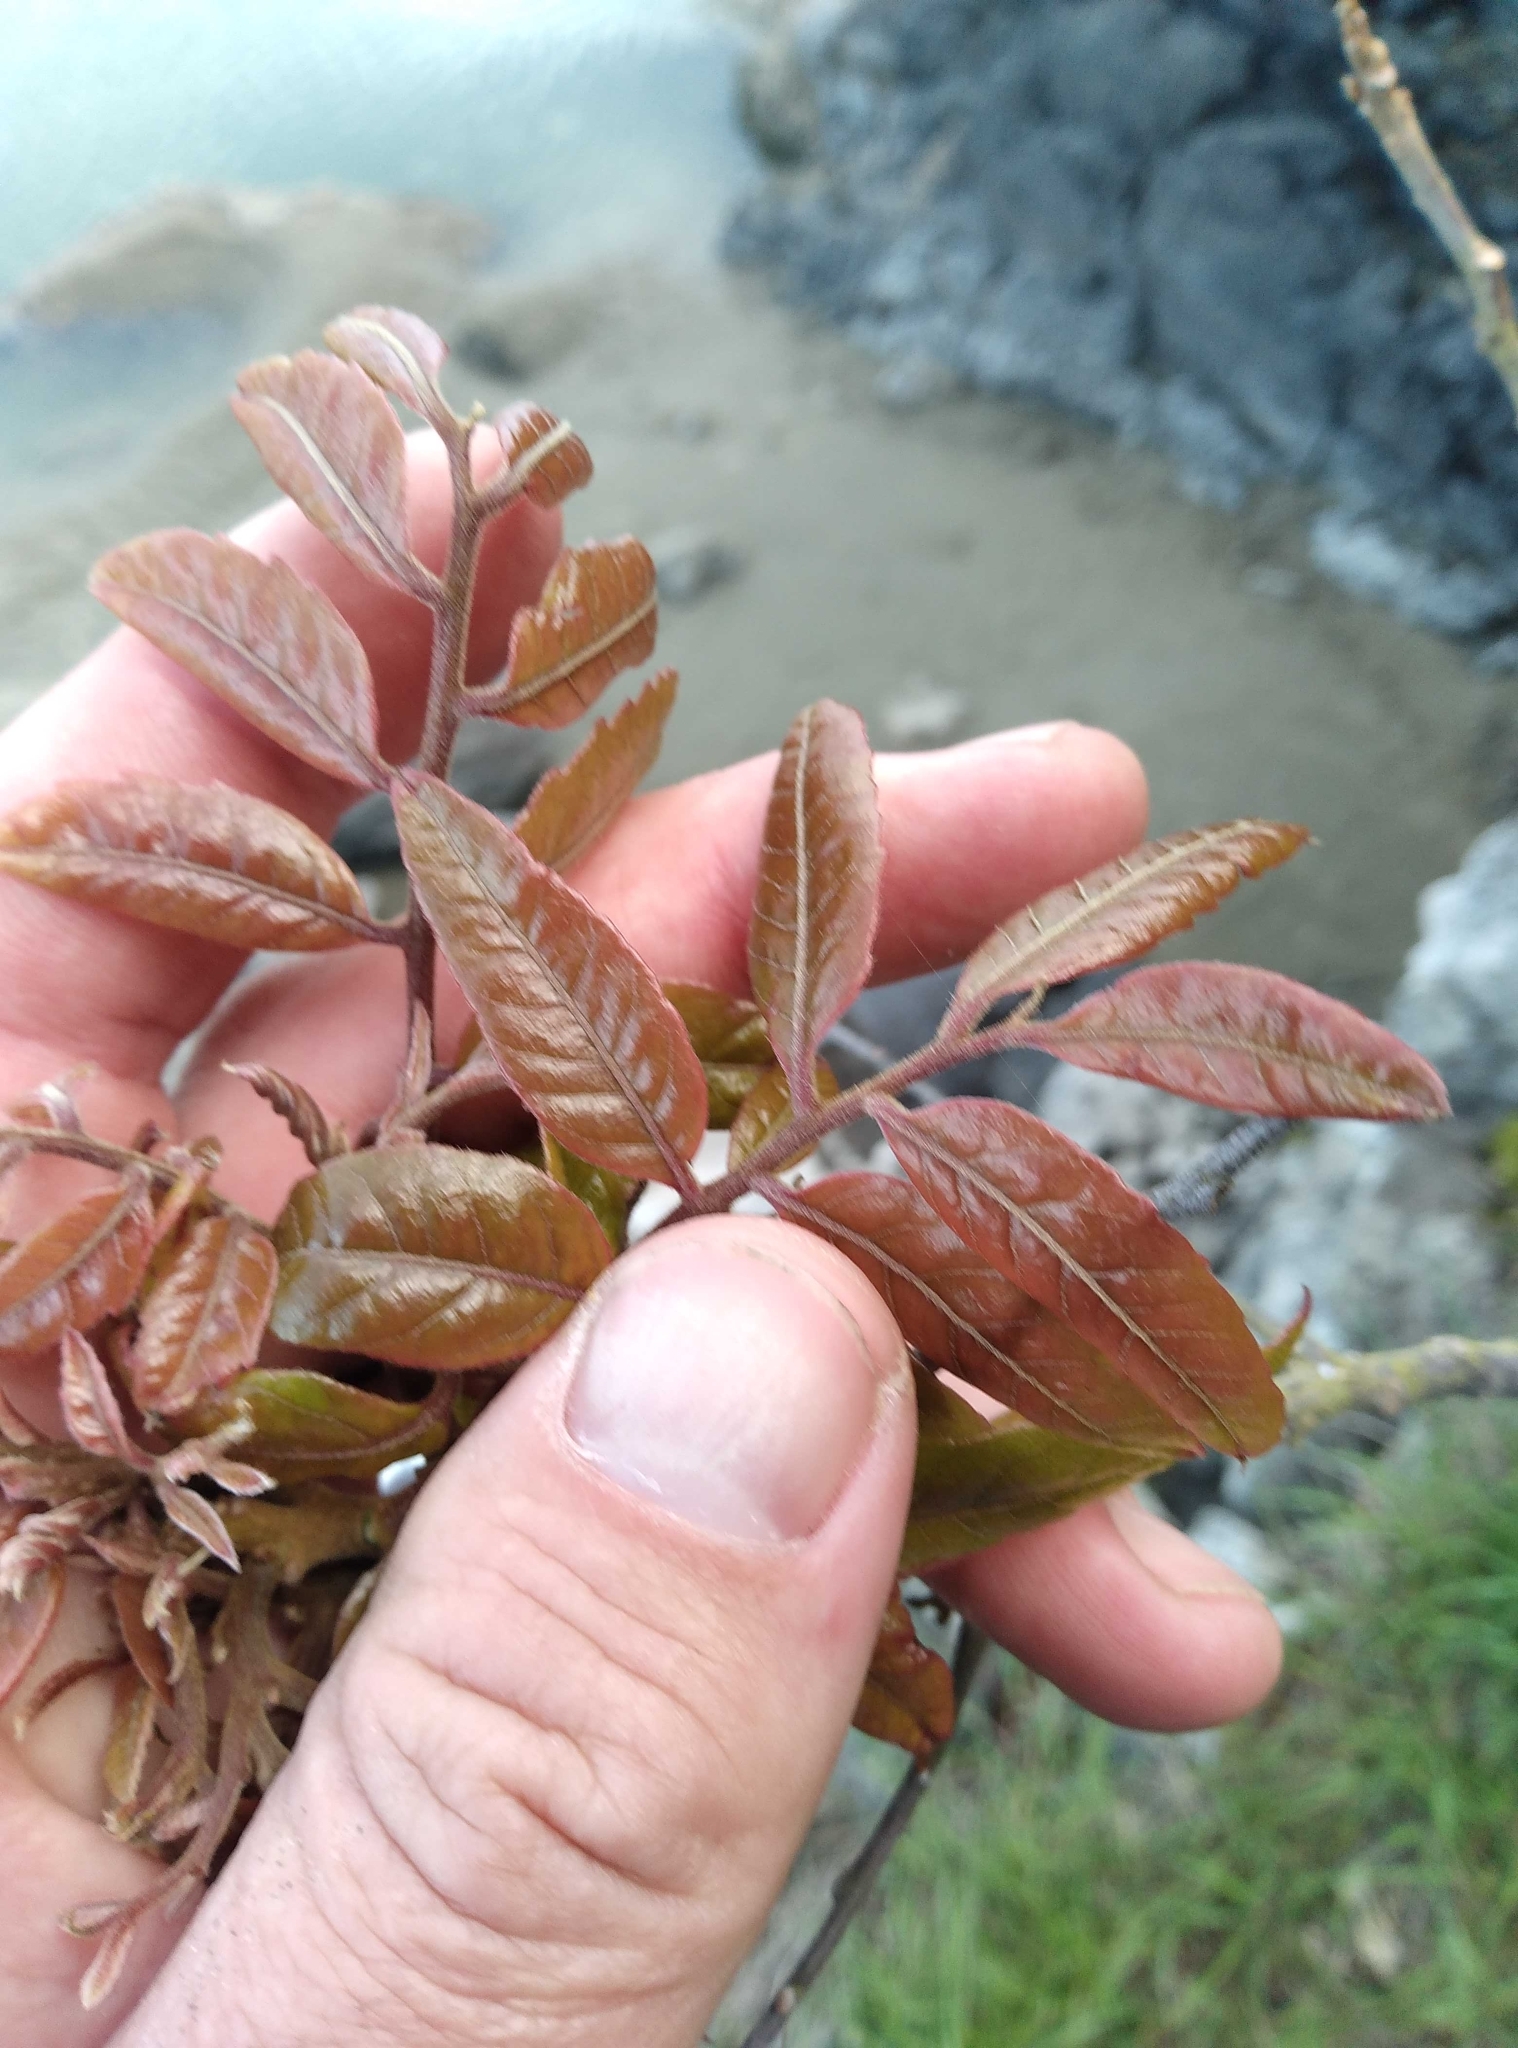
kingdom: Plantae
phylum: Tracheophyta
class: Magnoliopsida
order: Sapindales
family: Sapindaceae
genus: Alectryon
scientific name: Alectryon excelsus
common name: Three kings titoki
